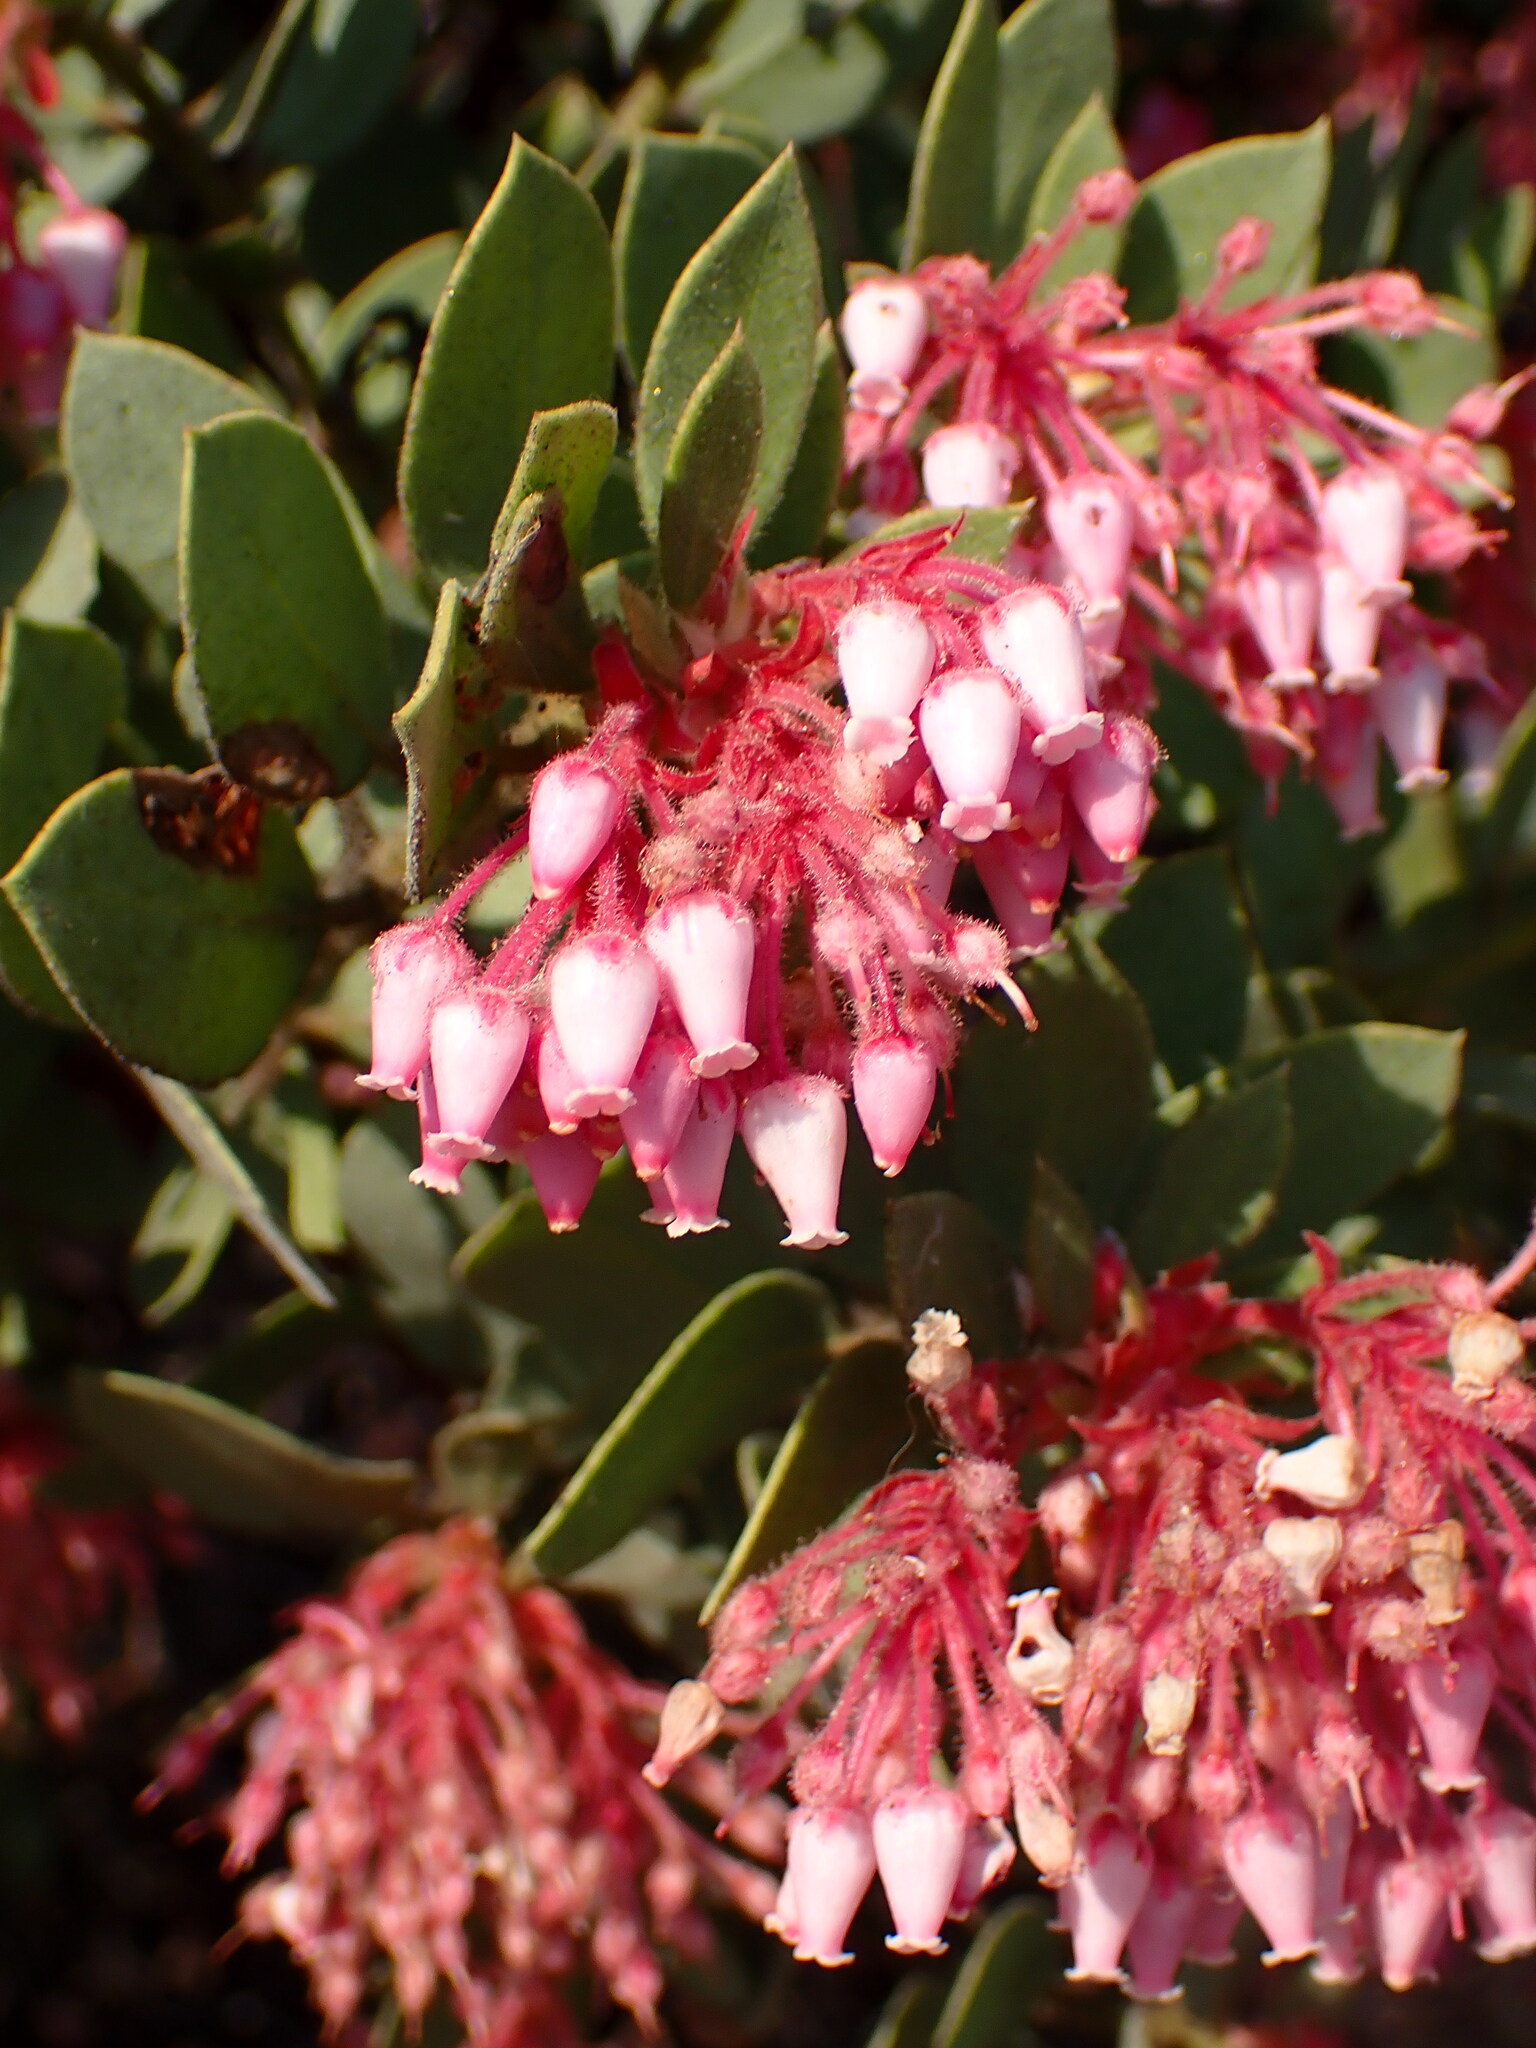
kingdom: Plantae
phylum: Tracheophyta
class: Magnoliopsida
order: Ericales
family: Ericaceae
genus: Arctostaphylos
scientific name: Arctostaphylos pringlei
